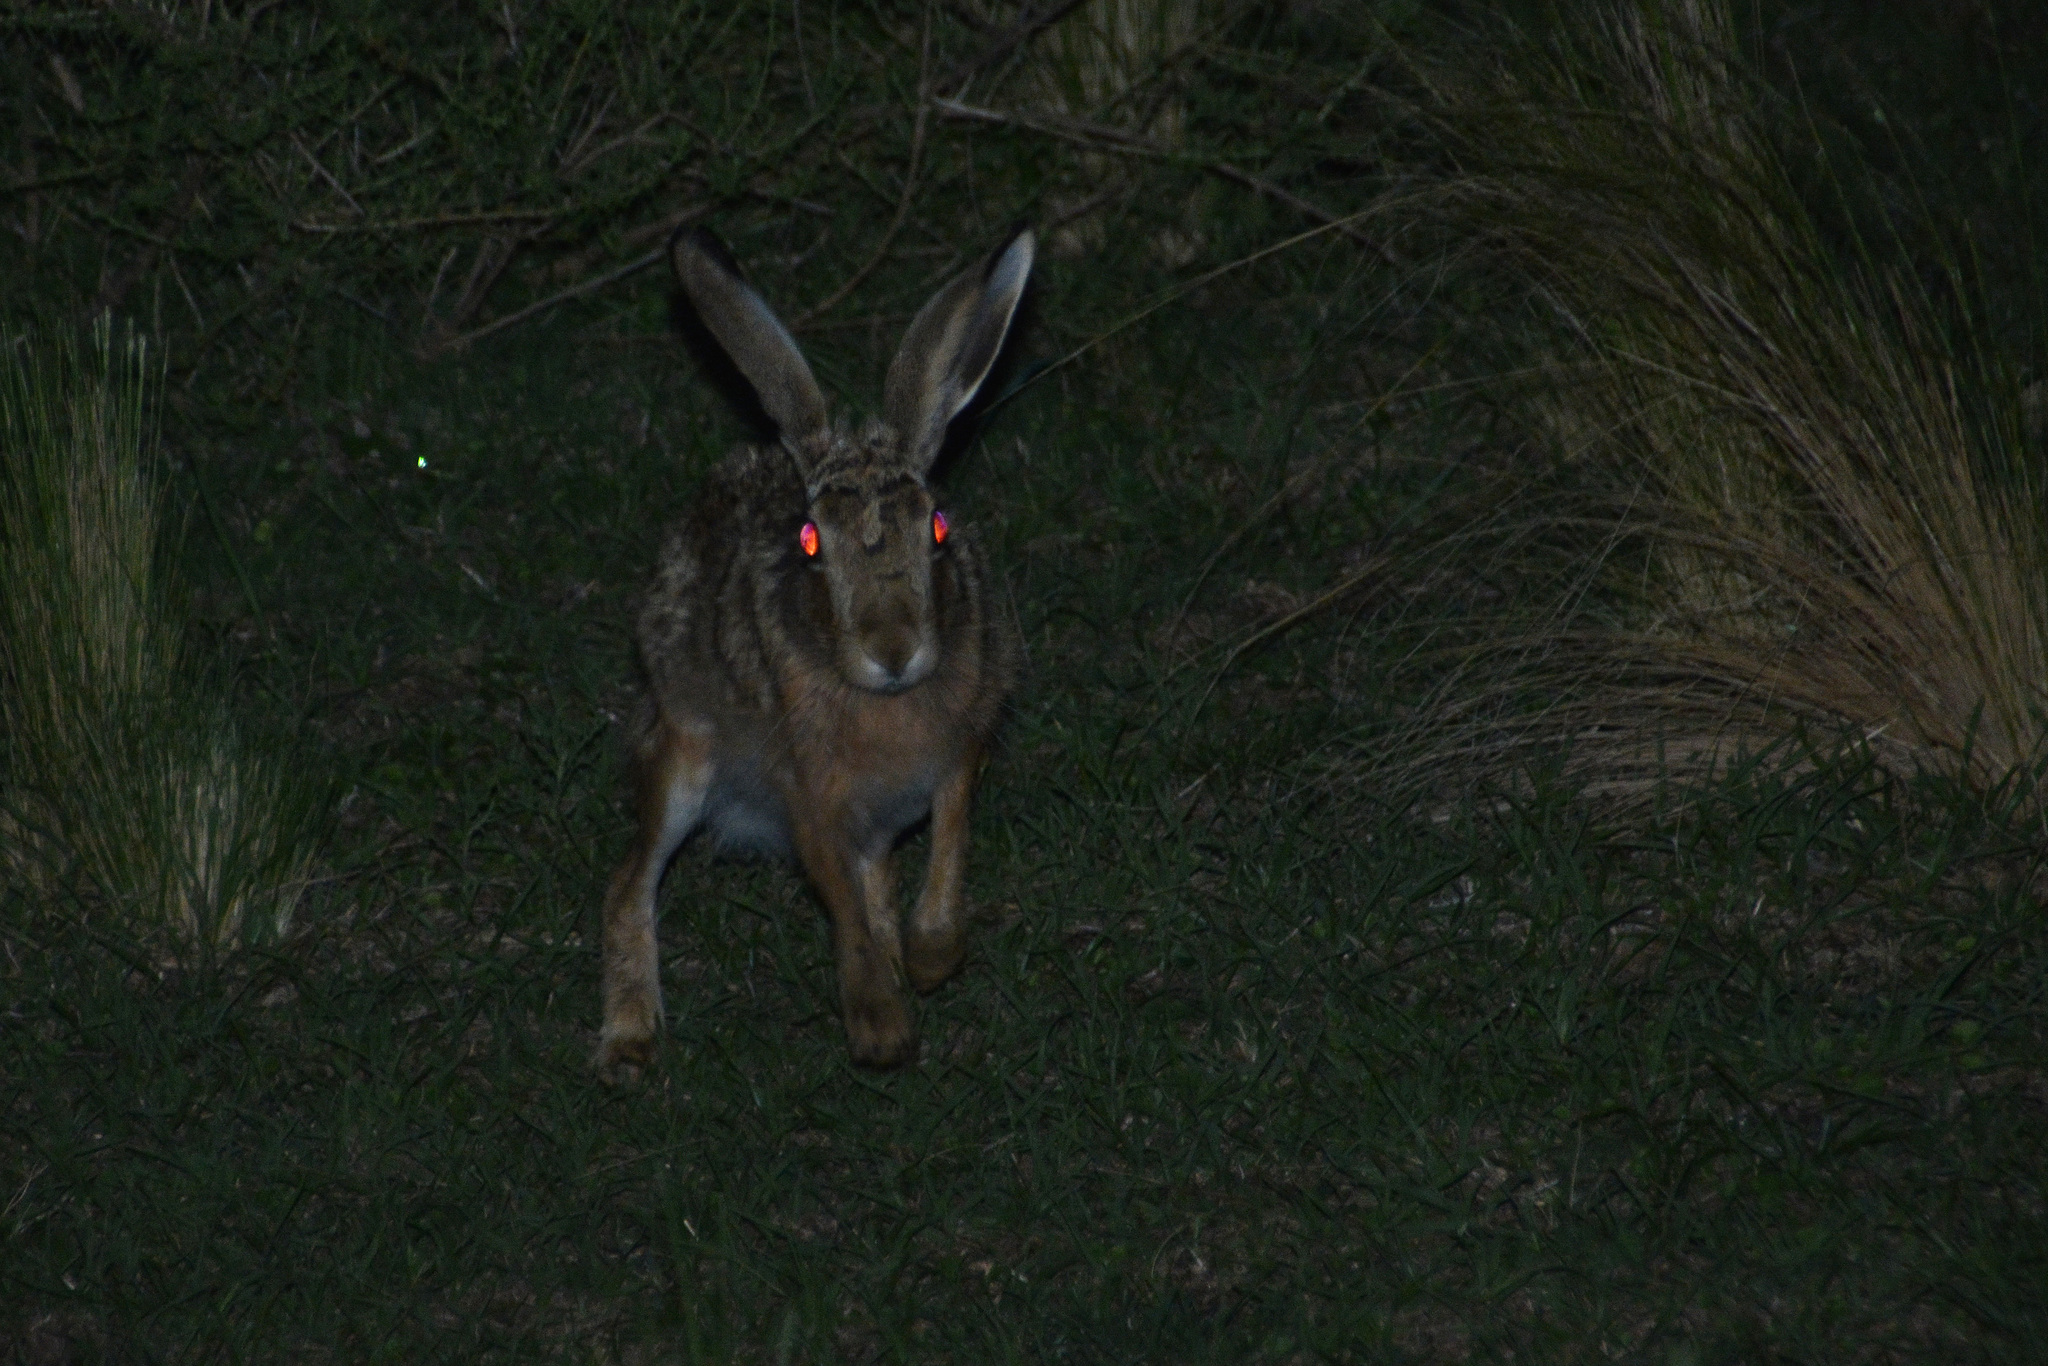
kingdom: Animalia
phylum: Chordata
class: Mammalia
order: Lagomorpha
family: Leporidae
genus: Lepus
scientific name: Lepus europaeus
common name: European hare
